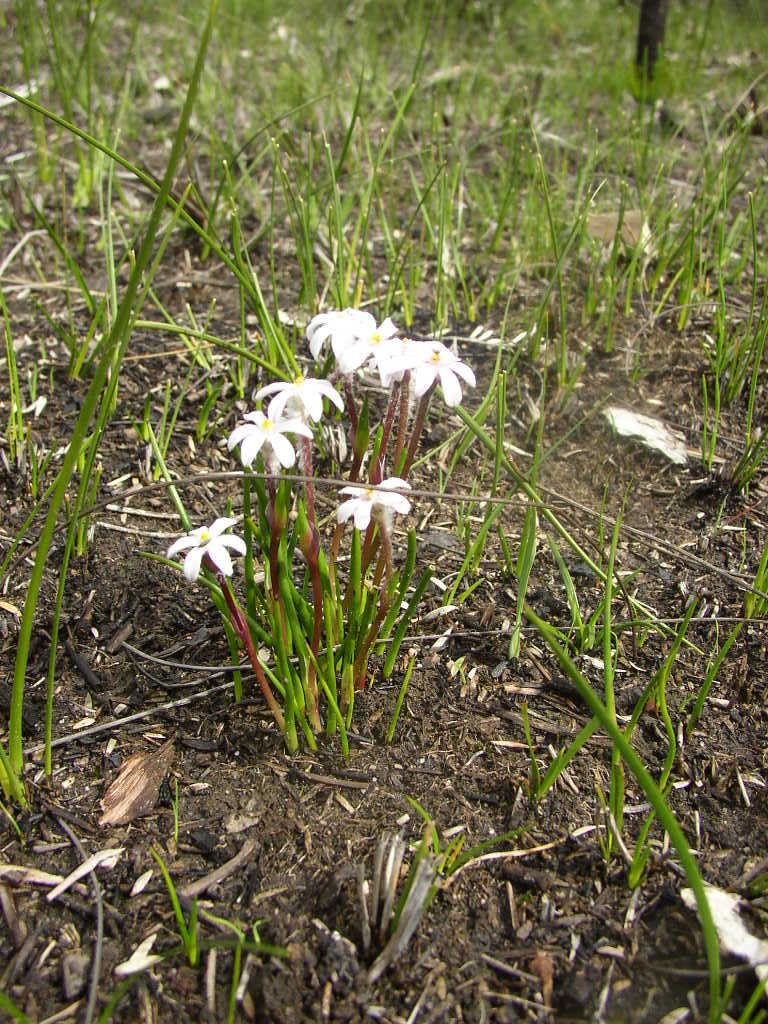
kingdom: Plantae
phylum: Tracheophyta
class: Liliopsida
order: Commelinales
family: Haemodoraceae
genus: Tribonanthes
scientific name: Tribonanthes uniflora
